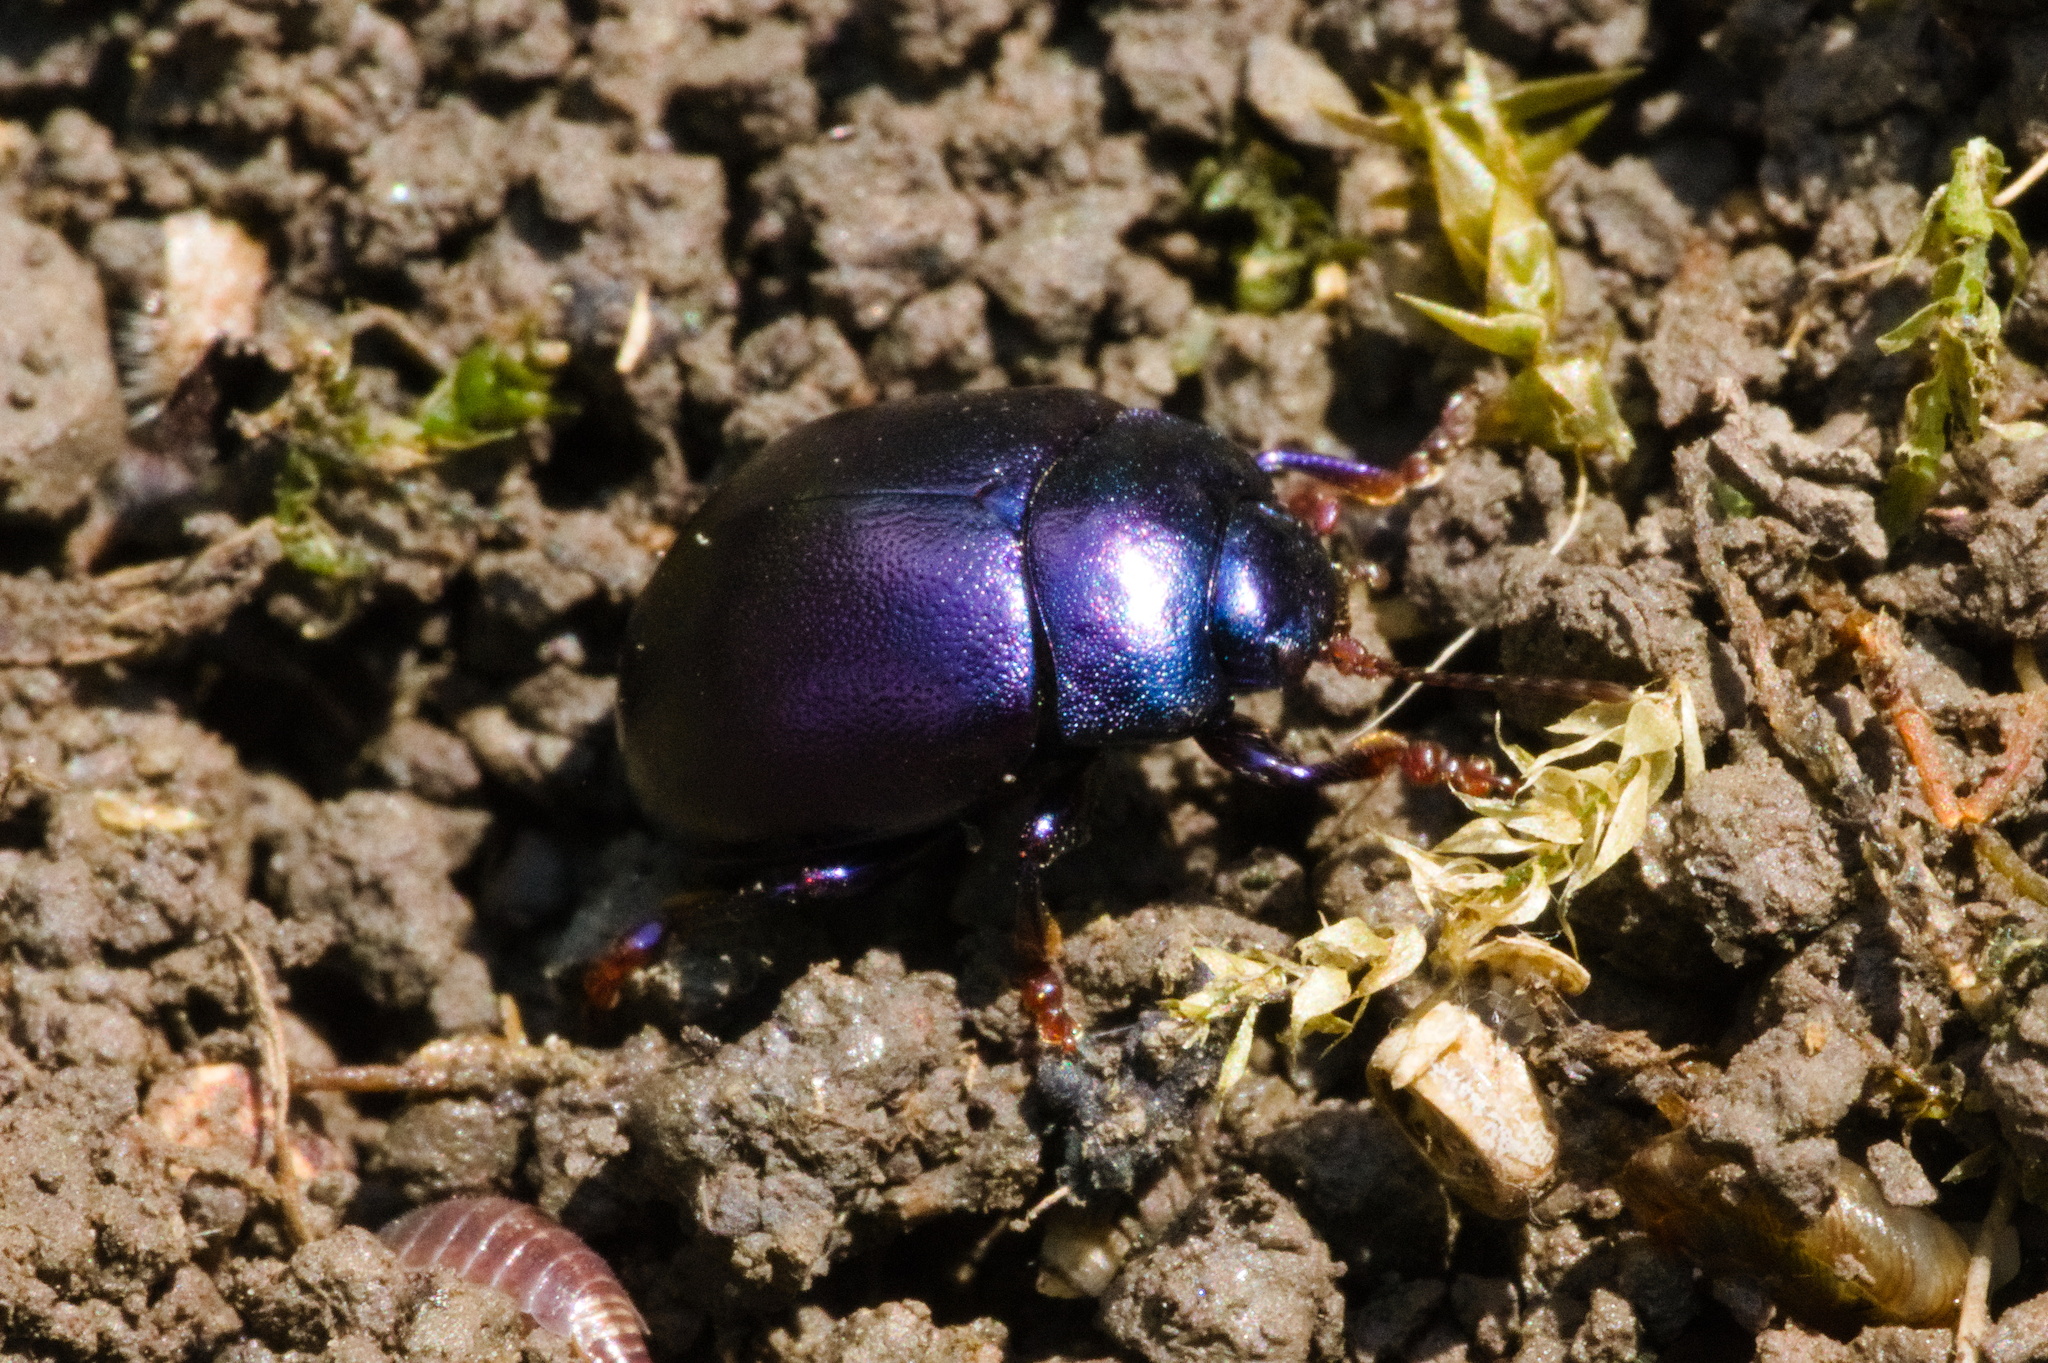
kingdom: Animalia
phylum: Arthropoda
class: Insecta
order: Coleoptera
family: Chrysomelidae
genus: Chrysolina
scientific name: Chrysolina sturmi
